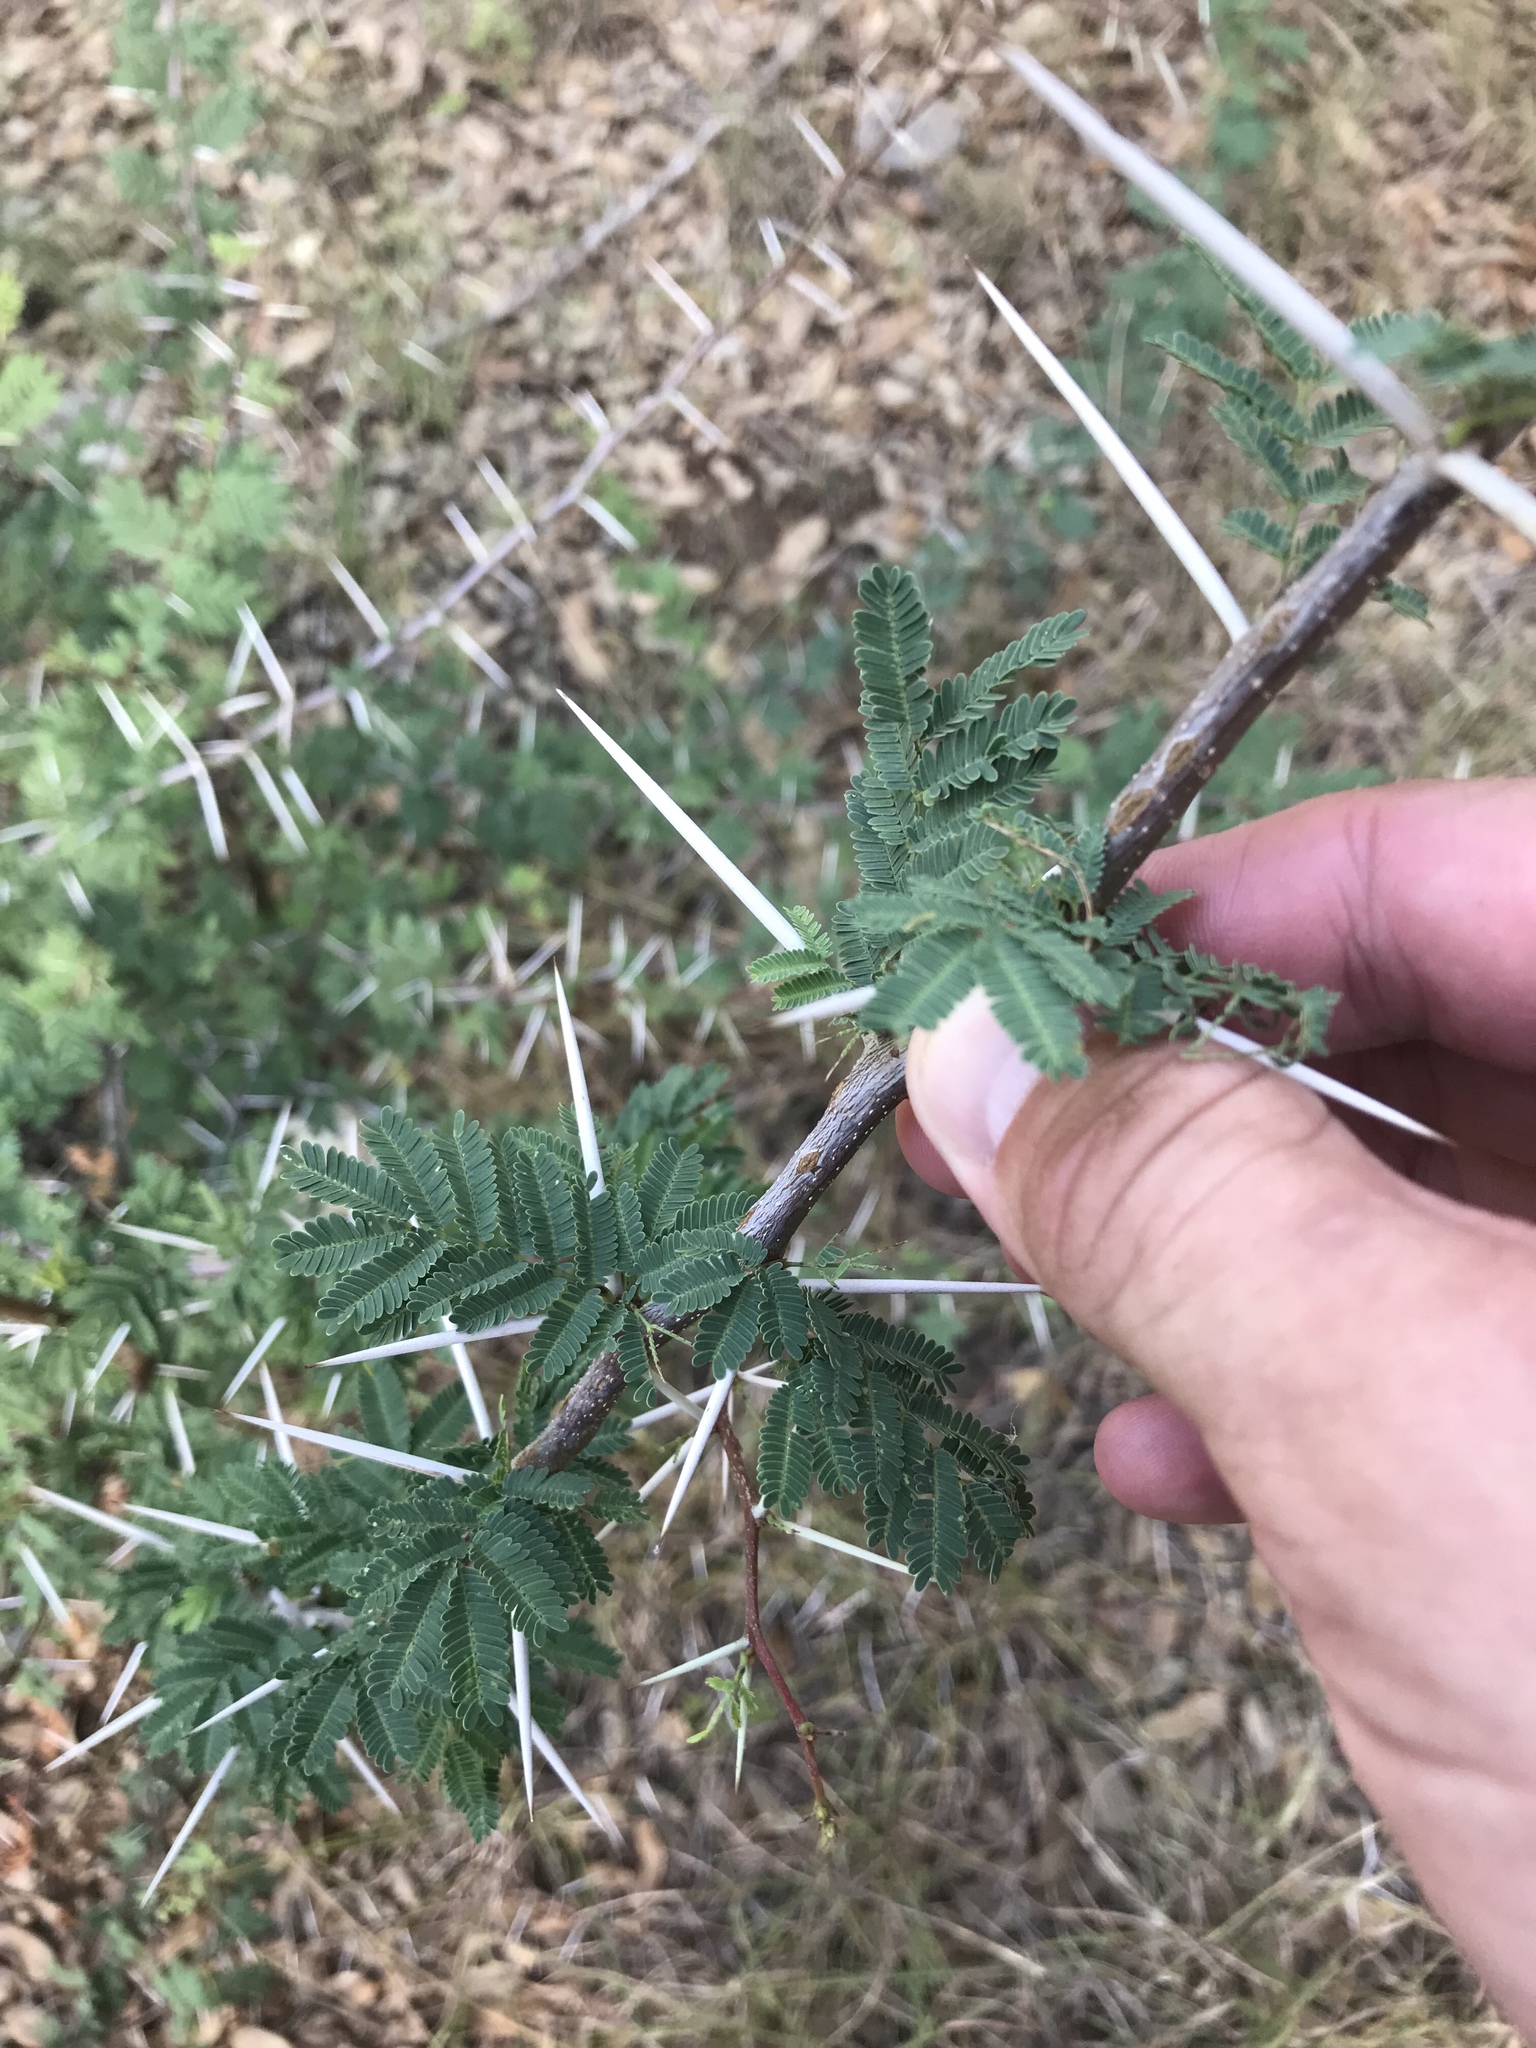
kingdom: Plantae
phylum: Tracheophyta
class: Magnoliopsida
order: Fabales
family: Fabaceae
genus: Vachellia
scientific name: Vachellia farnesiana
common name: Sweet acacia
